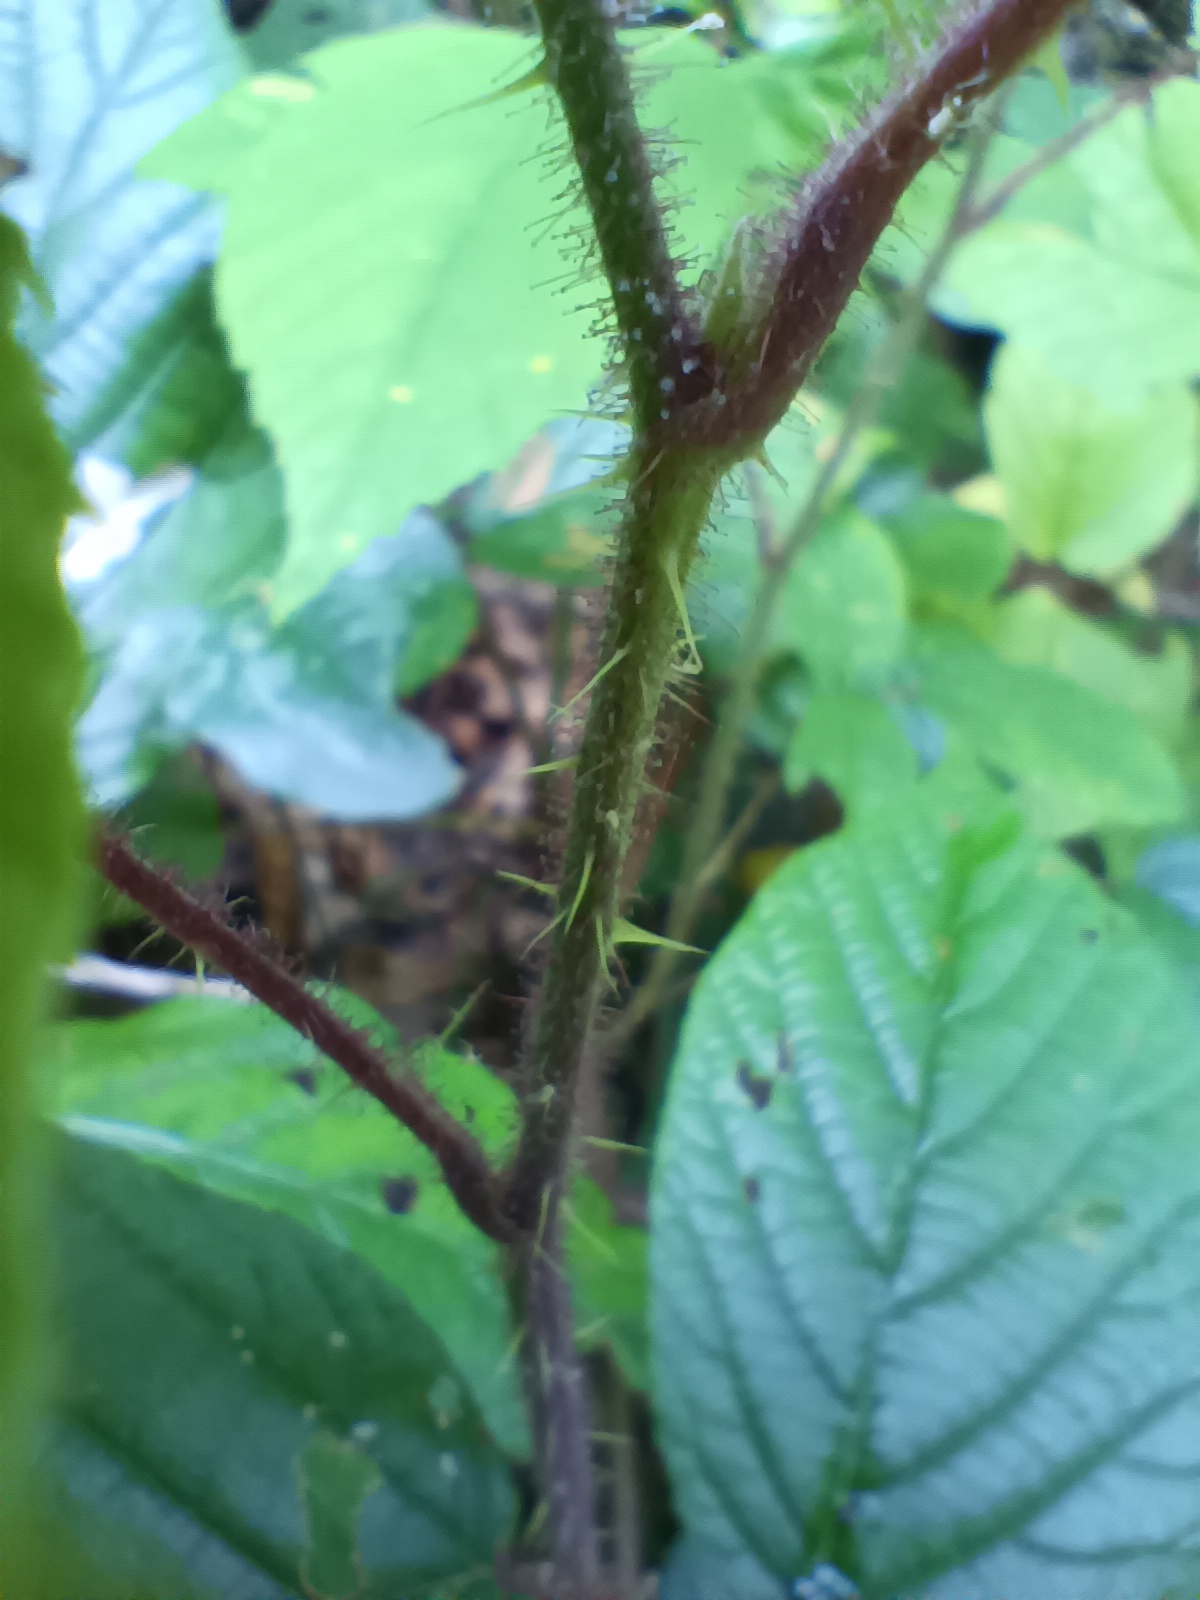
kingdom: Plantae
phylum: Tracheophyta
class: Magnoliopsida
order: Rosales
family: Rosaceae
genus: Rubus
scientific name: Rubus hirtus
